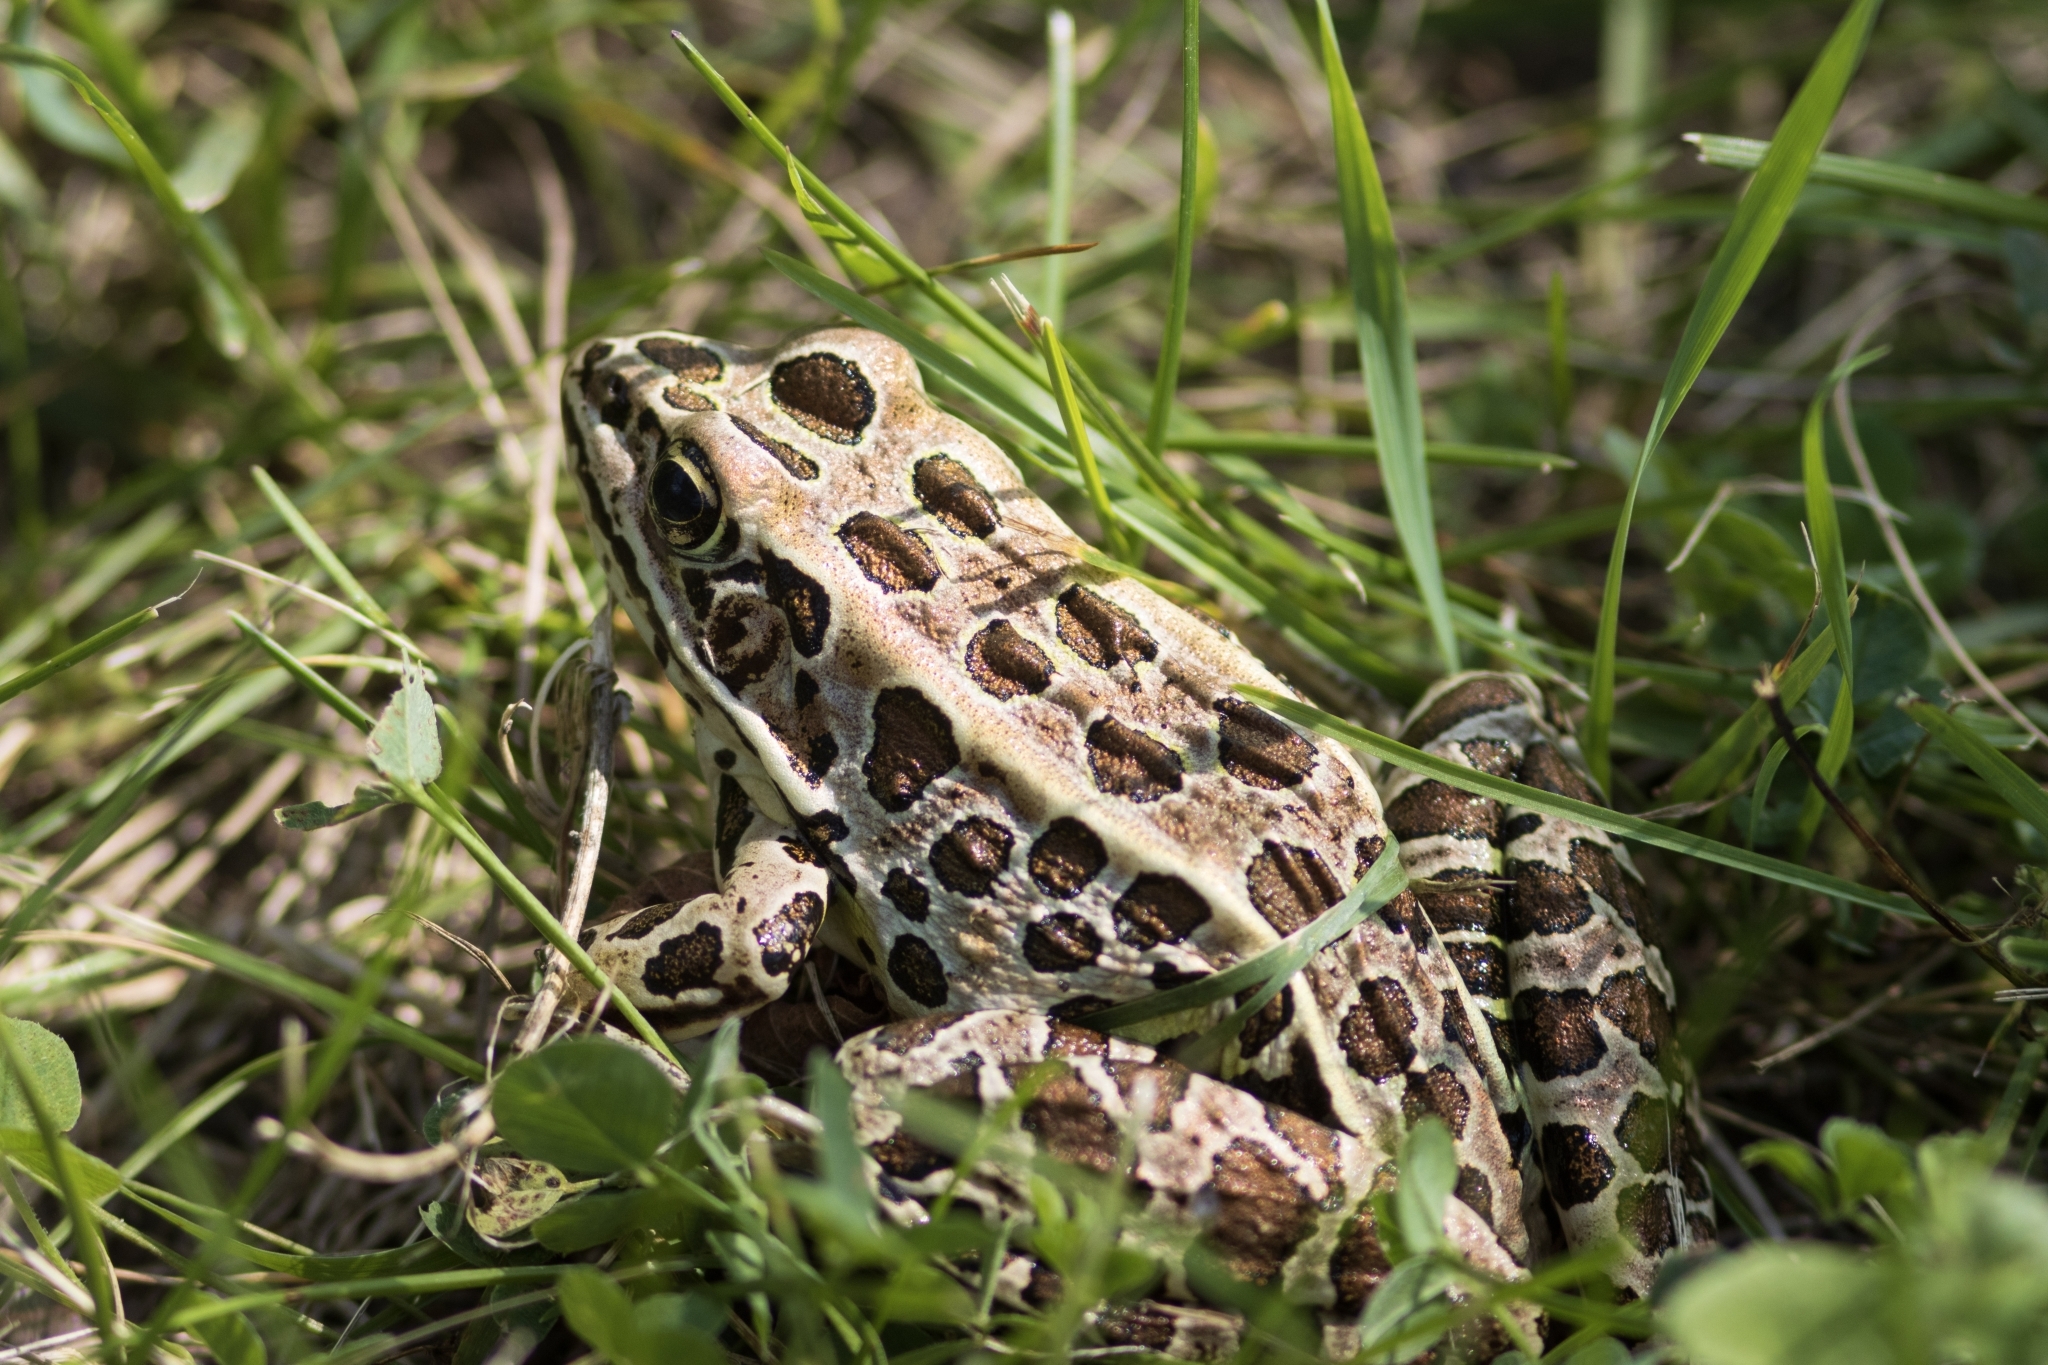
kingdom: Animalia
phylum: Chordata
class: Amphibia
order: Anura
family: Ranidae
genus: Lithobates
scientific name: Lithobates pipiens
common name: Northern leopard frog
